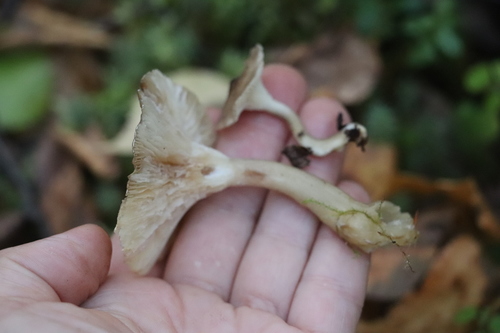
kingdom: Fungi
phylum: Basidiomycota
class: Agaricomycetes
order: Agaricales
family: Hygrophoraceae
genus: Ampulloclitocybe
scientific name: Ampulloclitocybe clavipes
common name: Club foot
